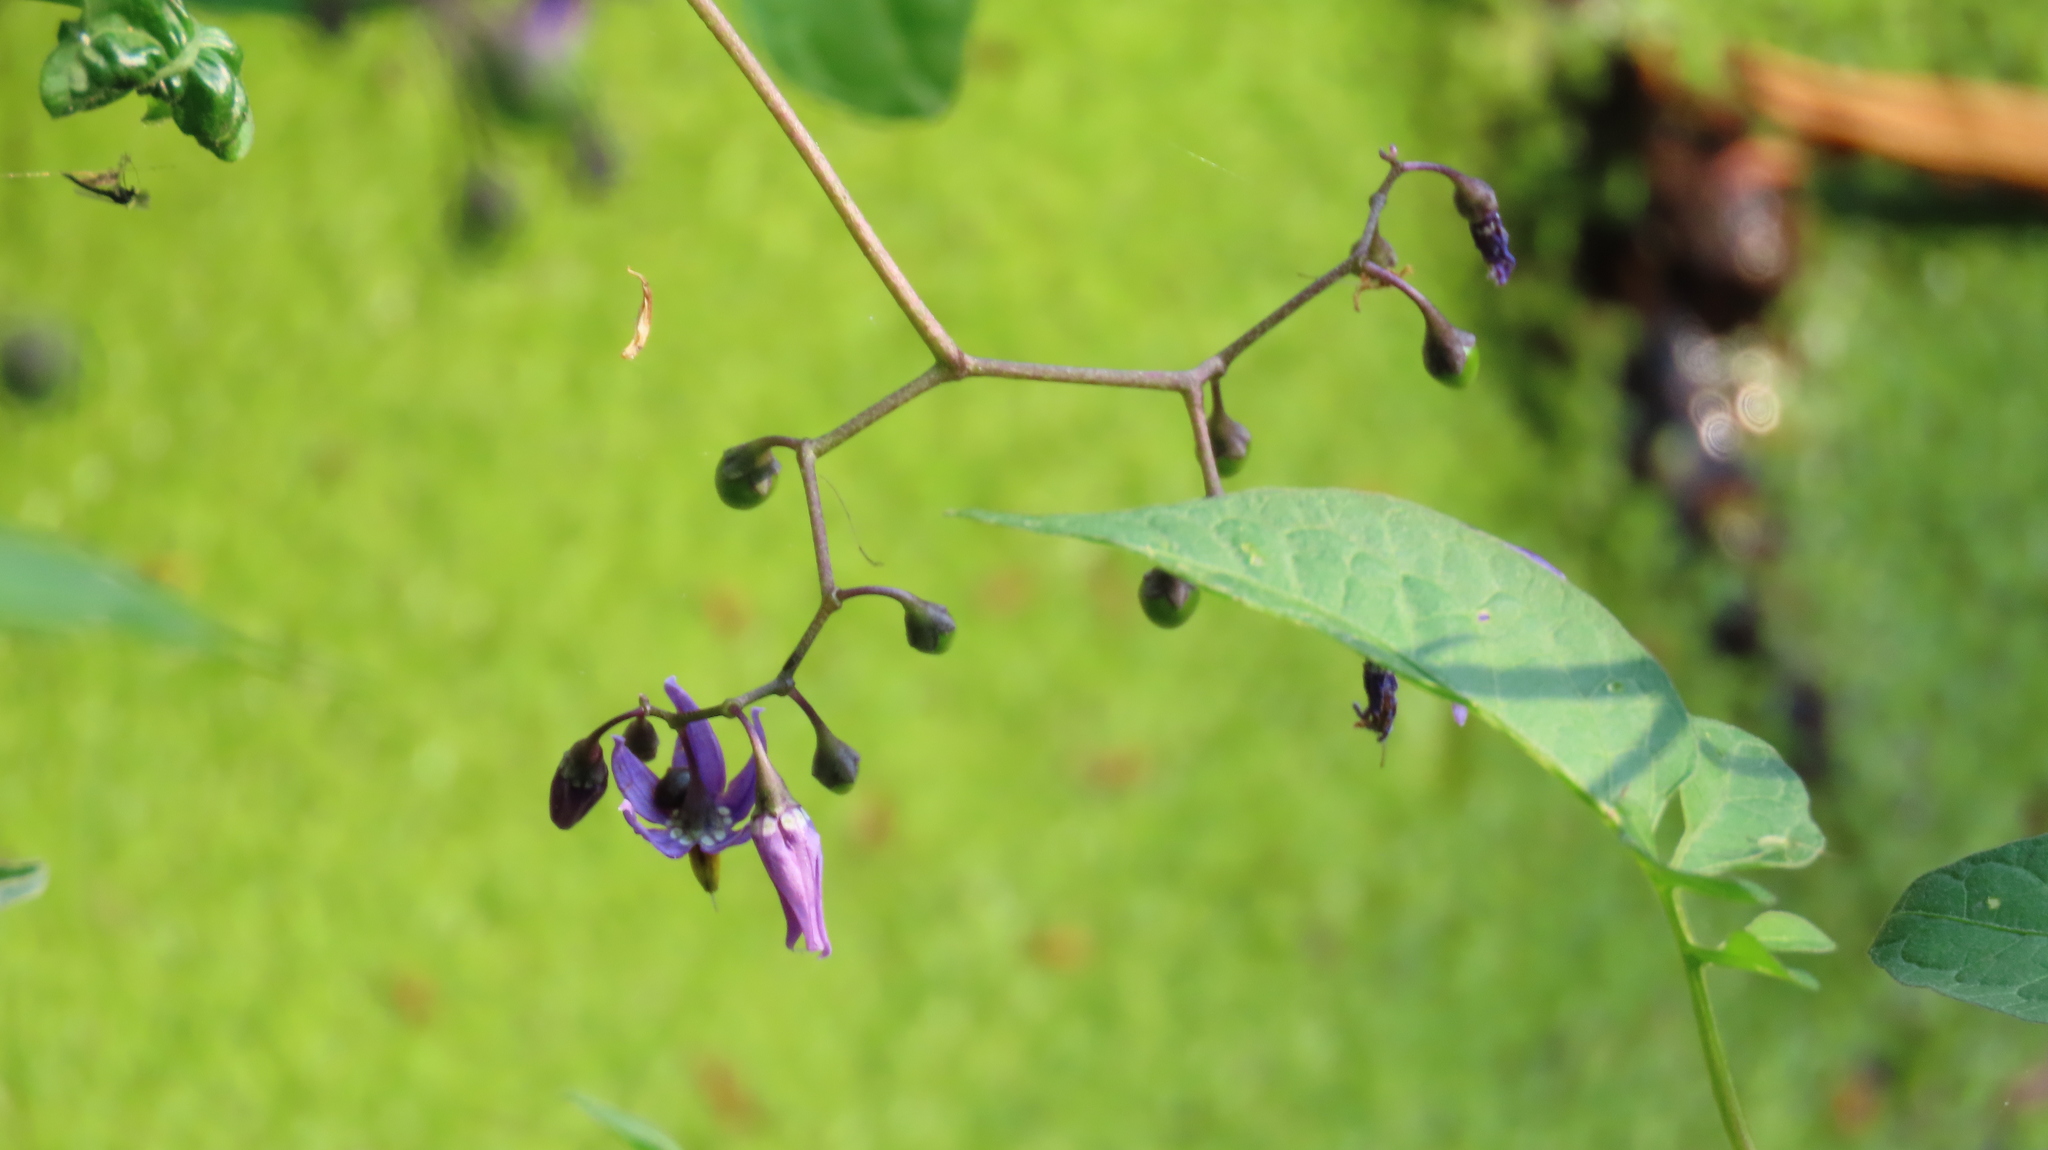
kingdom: Plantae
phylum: Tracheophyta
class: Magnoliopsida
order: Solanales
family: Solanaceae
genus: Solanum
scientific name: Solanum dulcamara
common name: Climbing nightshade
